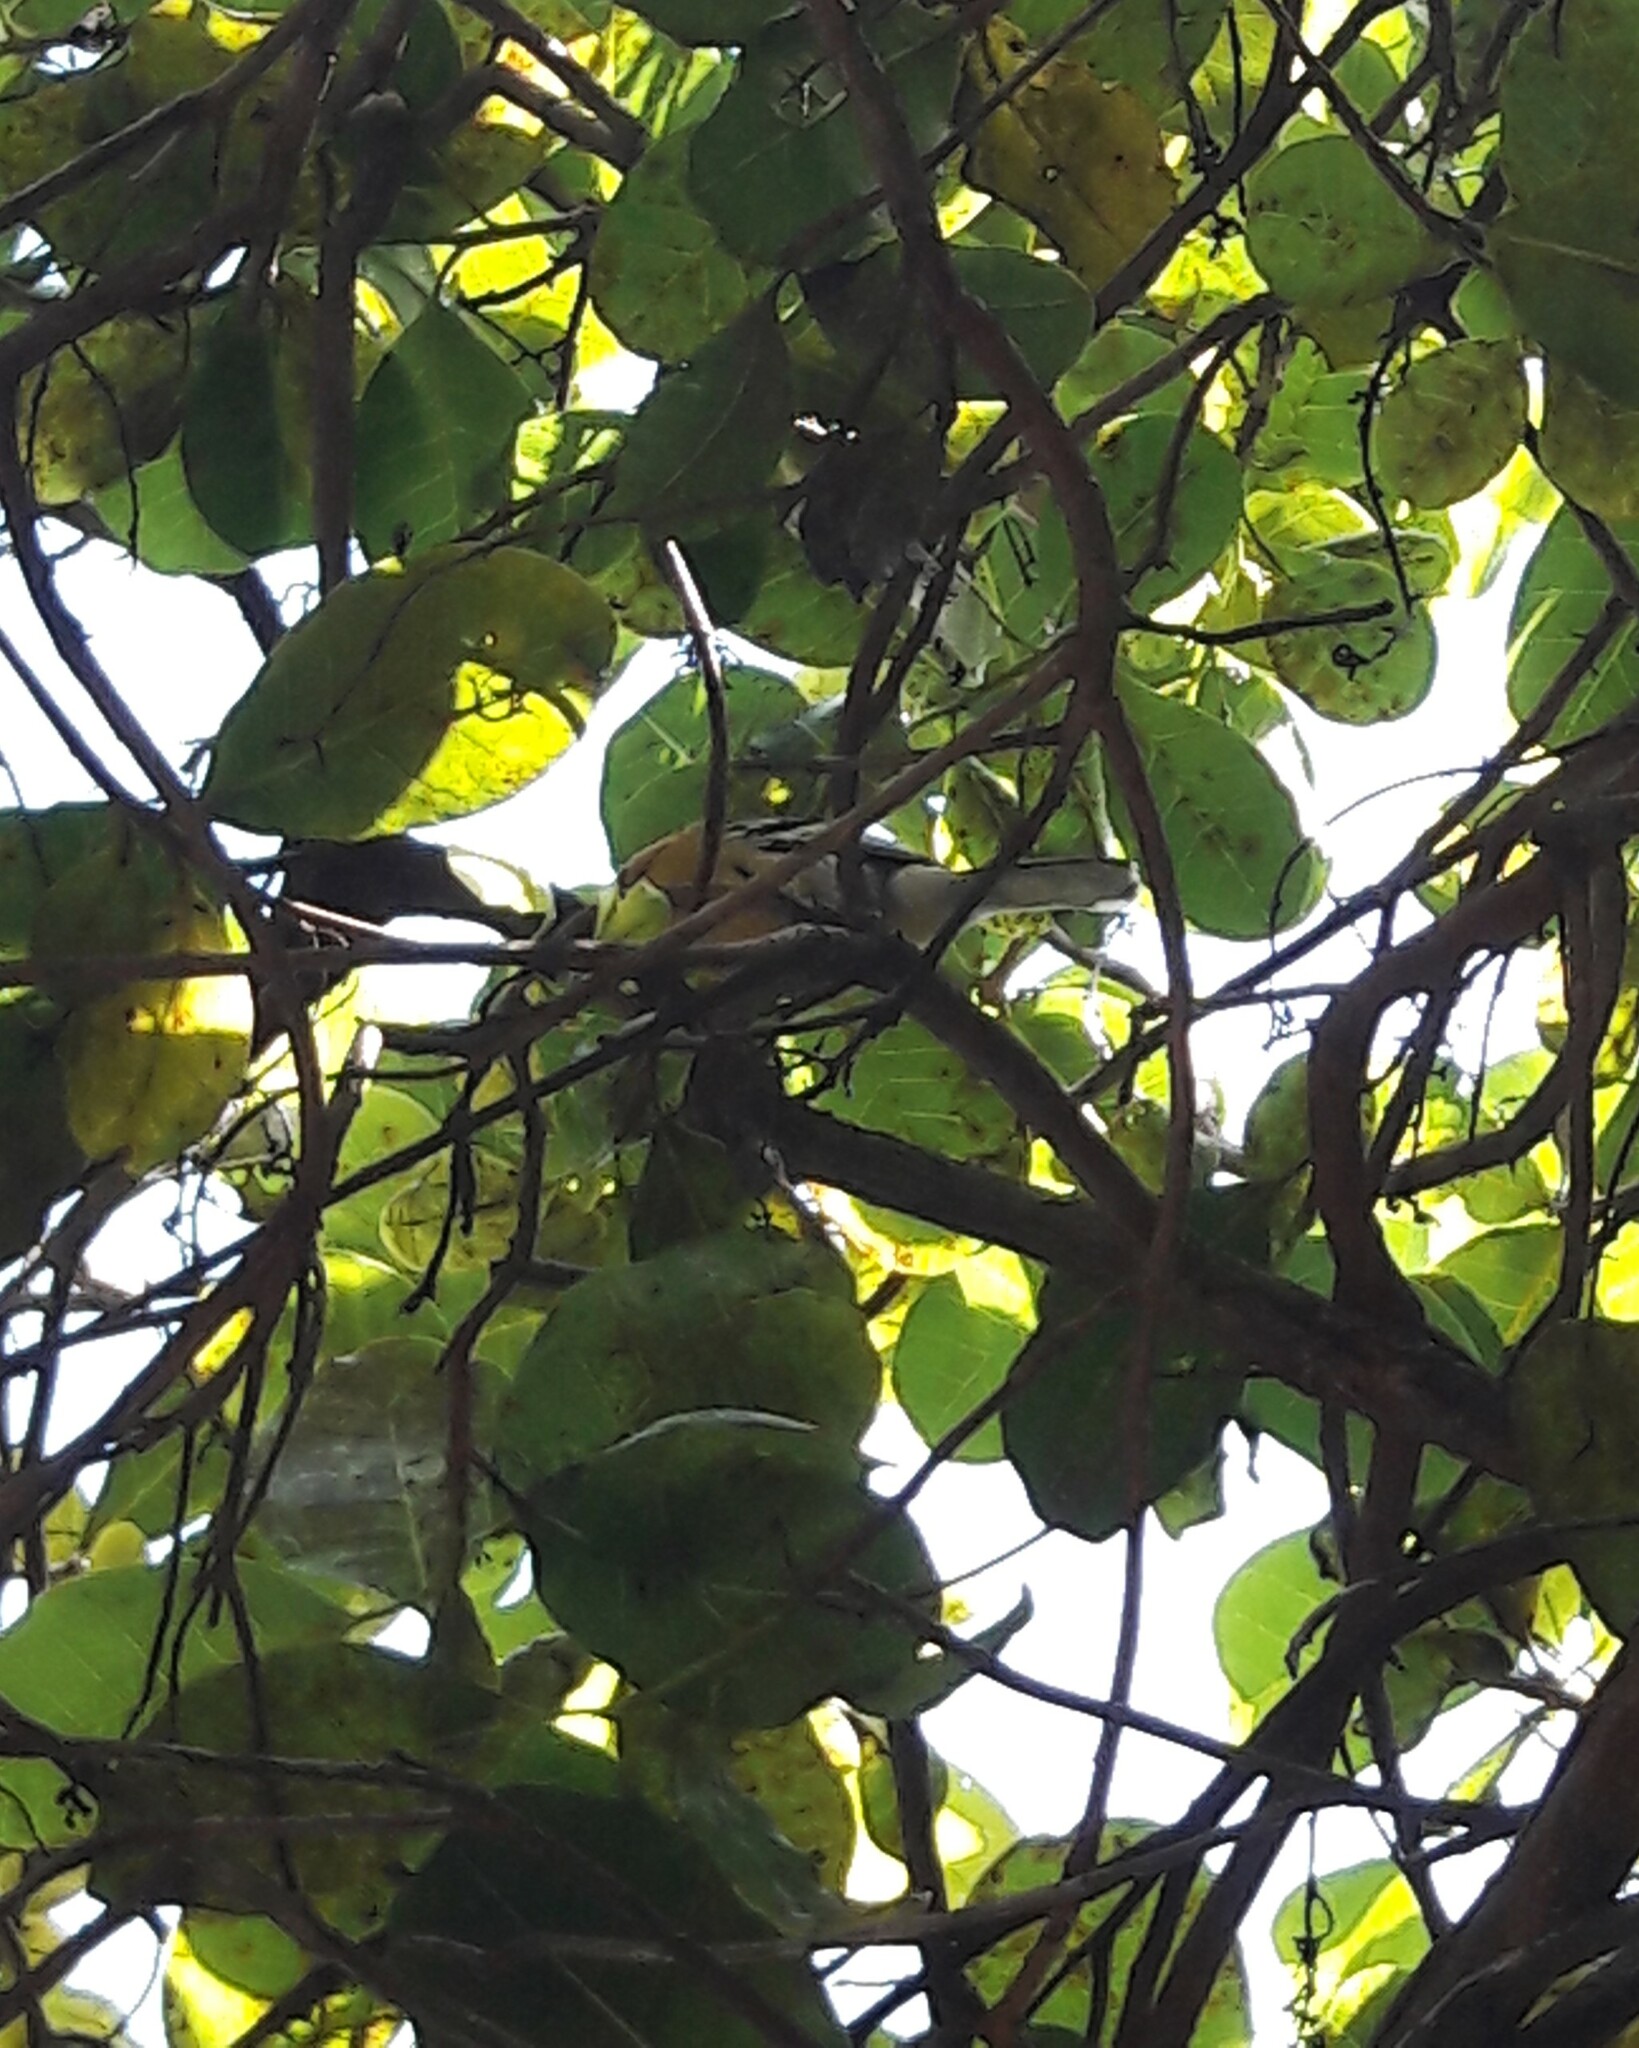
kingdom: Animalia
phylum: Chordata
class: Aves
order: Passeriformes
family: Thamnophilidae
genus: Herpsilochmus
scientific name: Herpsilochmus longirostris
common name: Large-billed antwren
